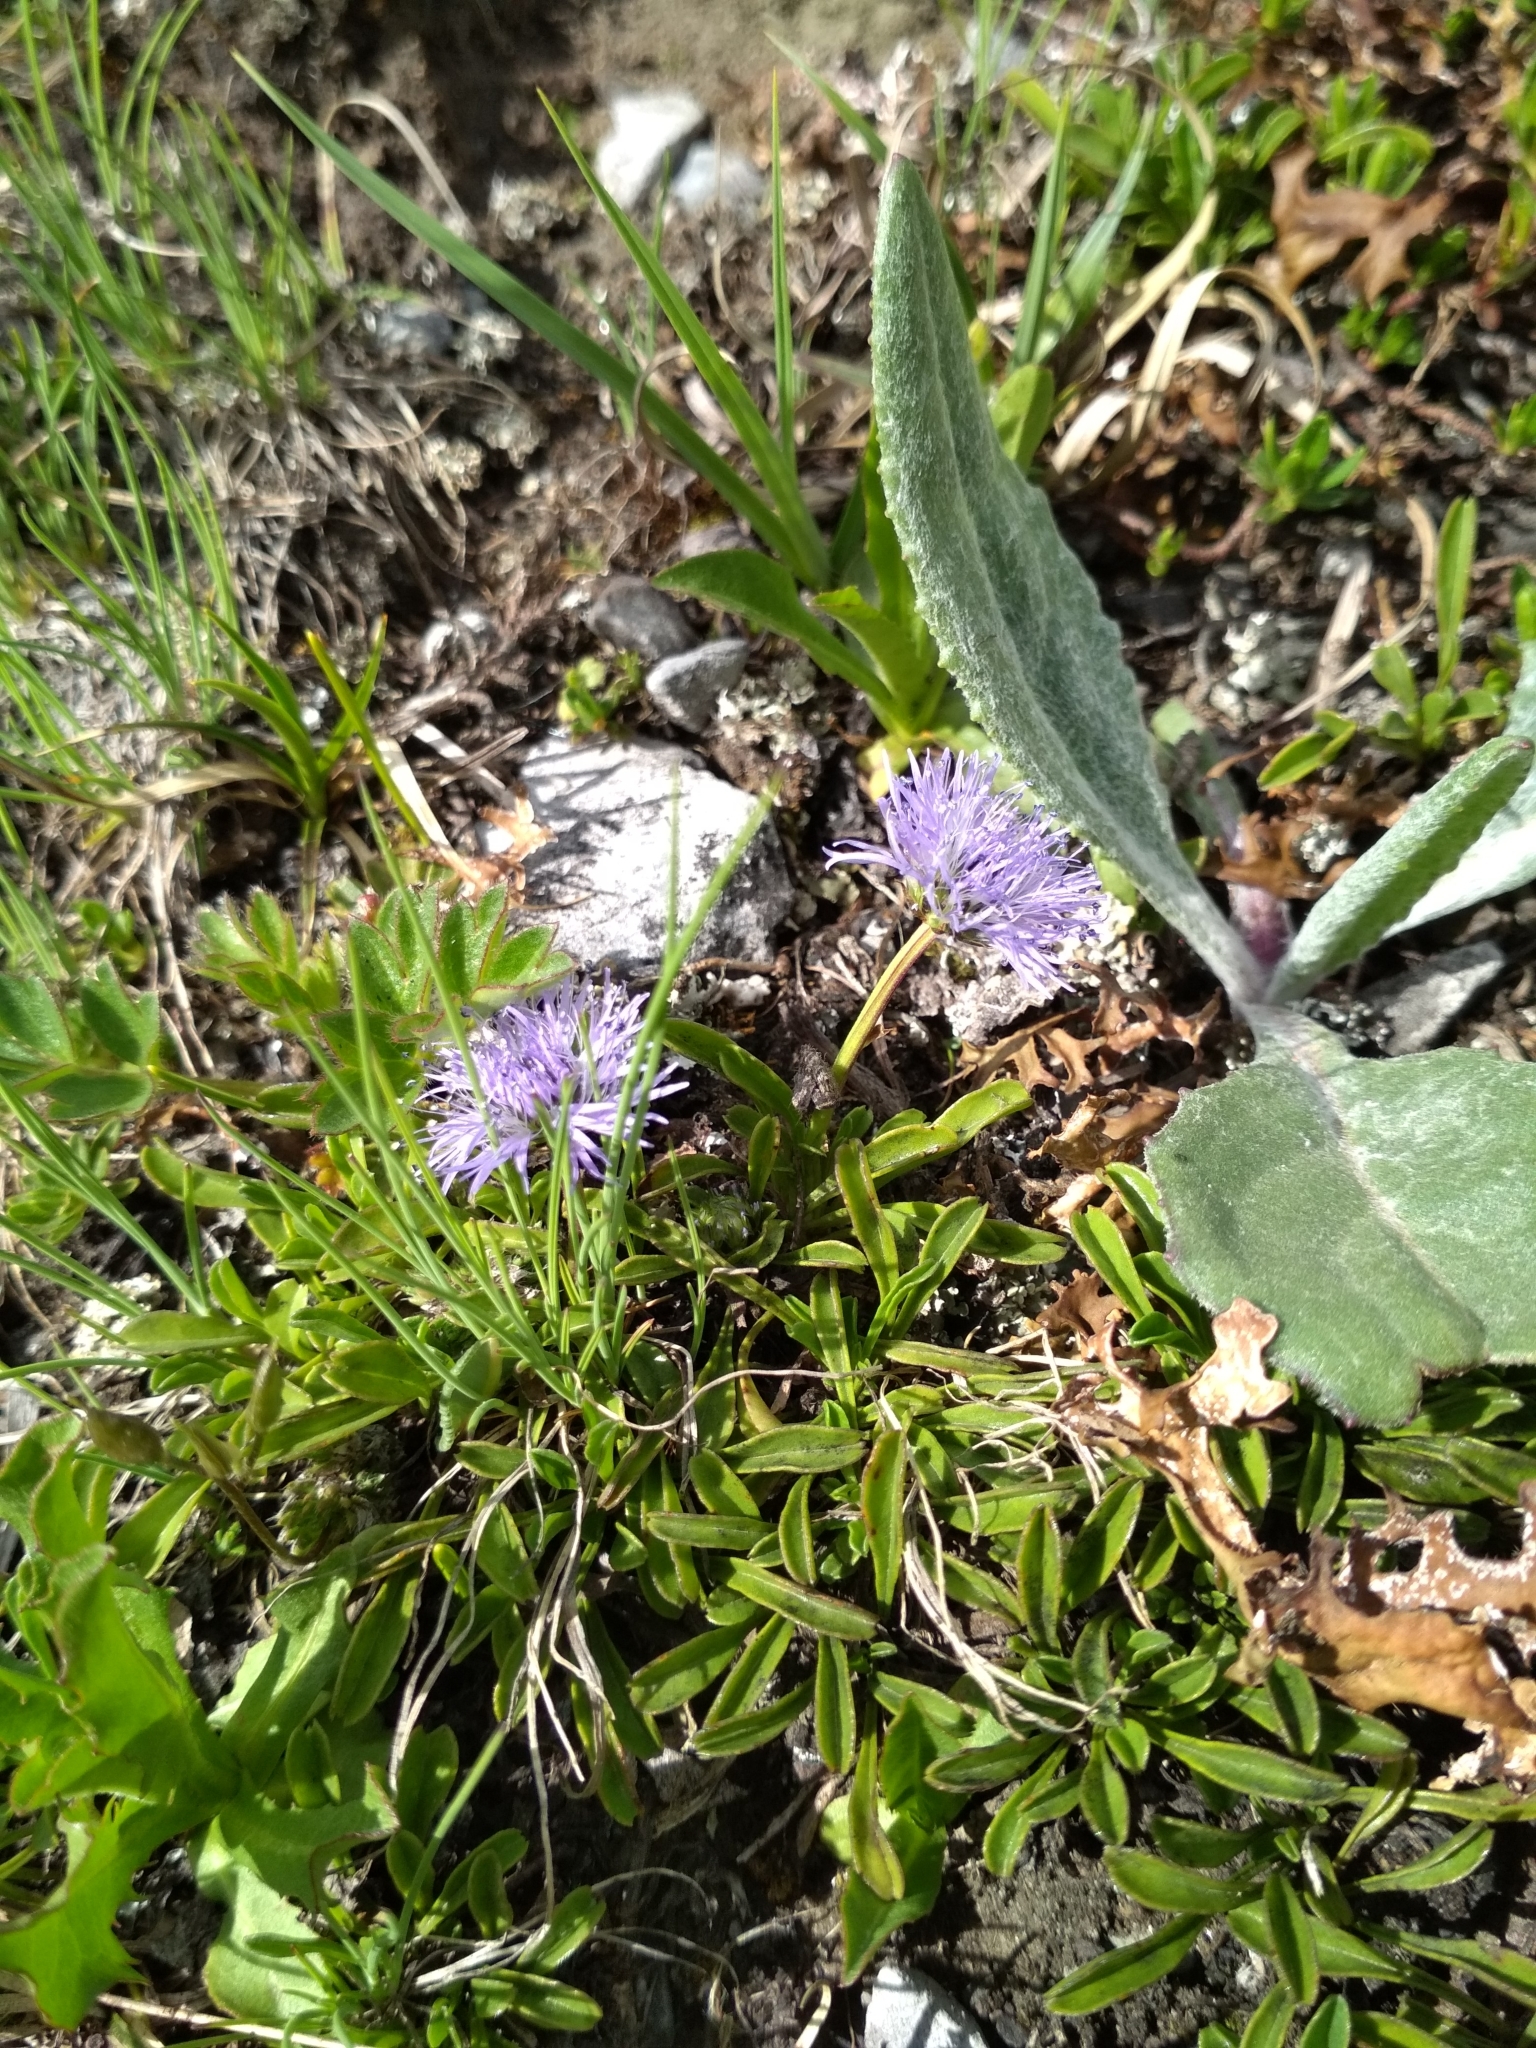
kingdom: Plantae
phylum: Tracheophyta
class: Magnoliopsida
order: Lamiales
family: Plantaginaceae
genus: Globularia
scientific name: Globularia cordifolia
